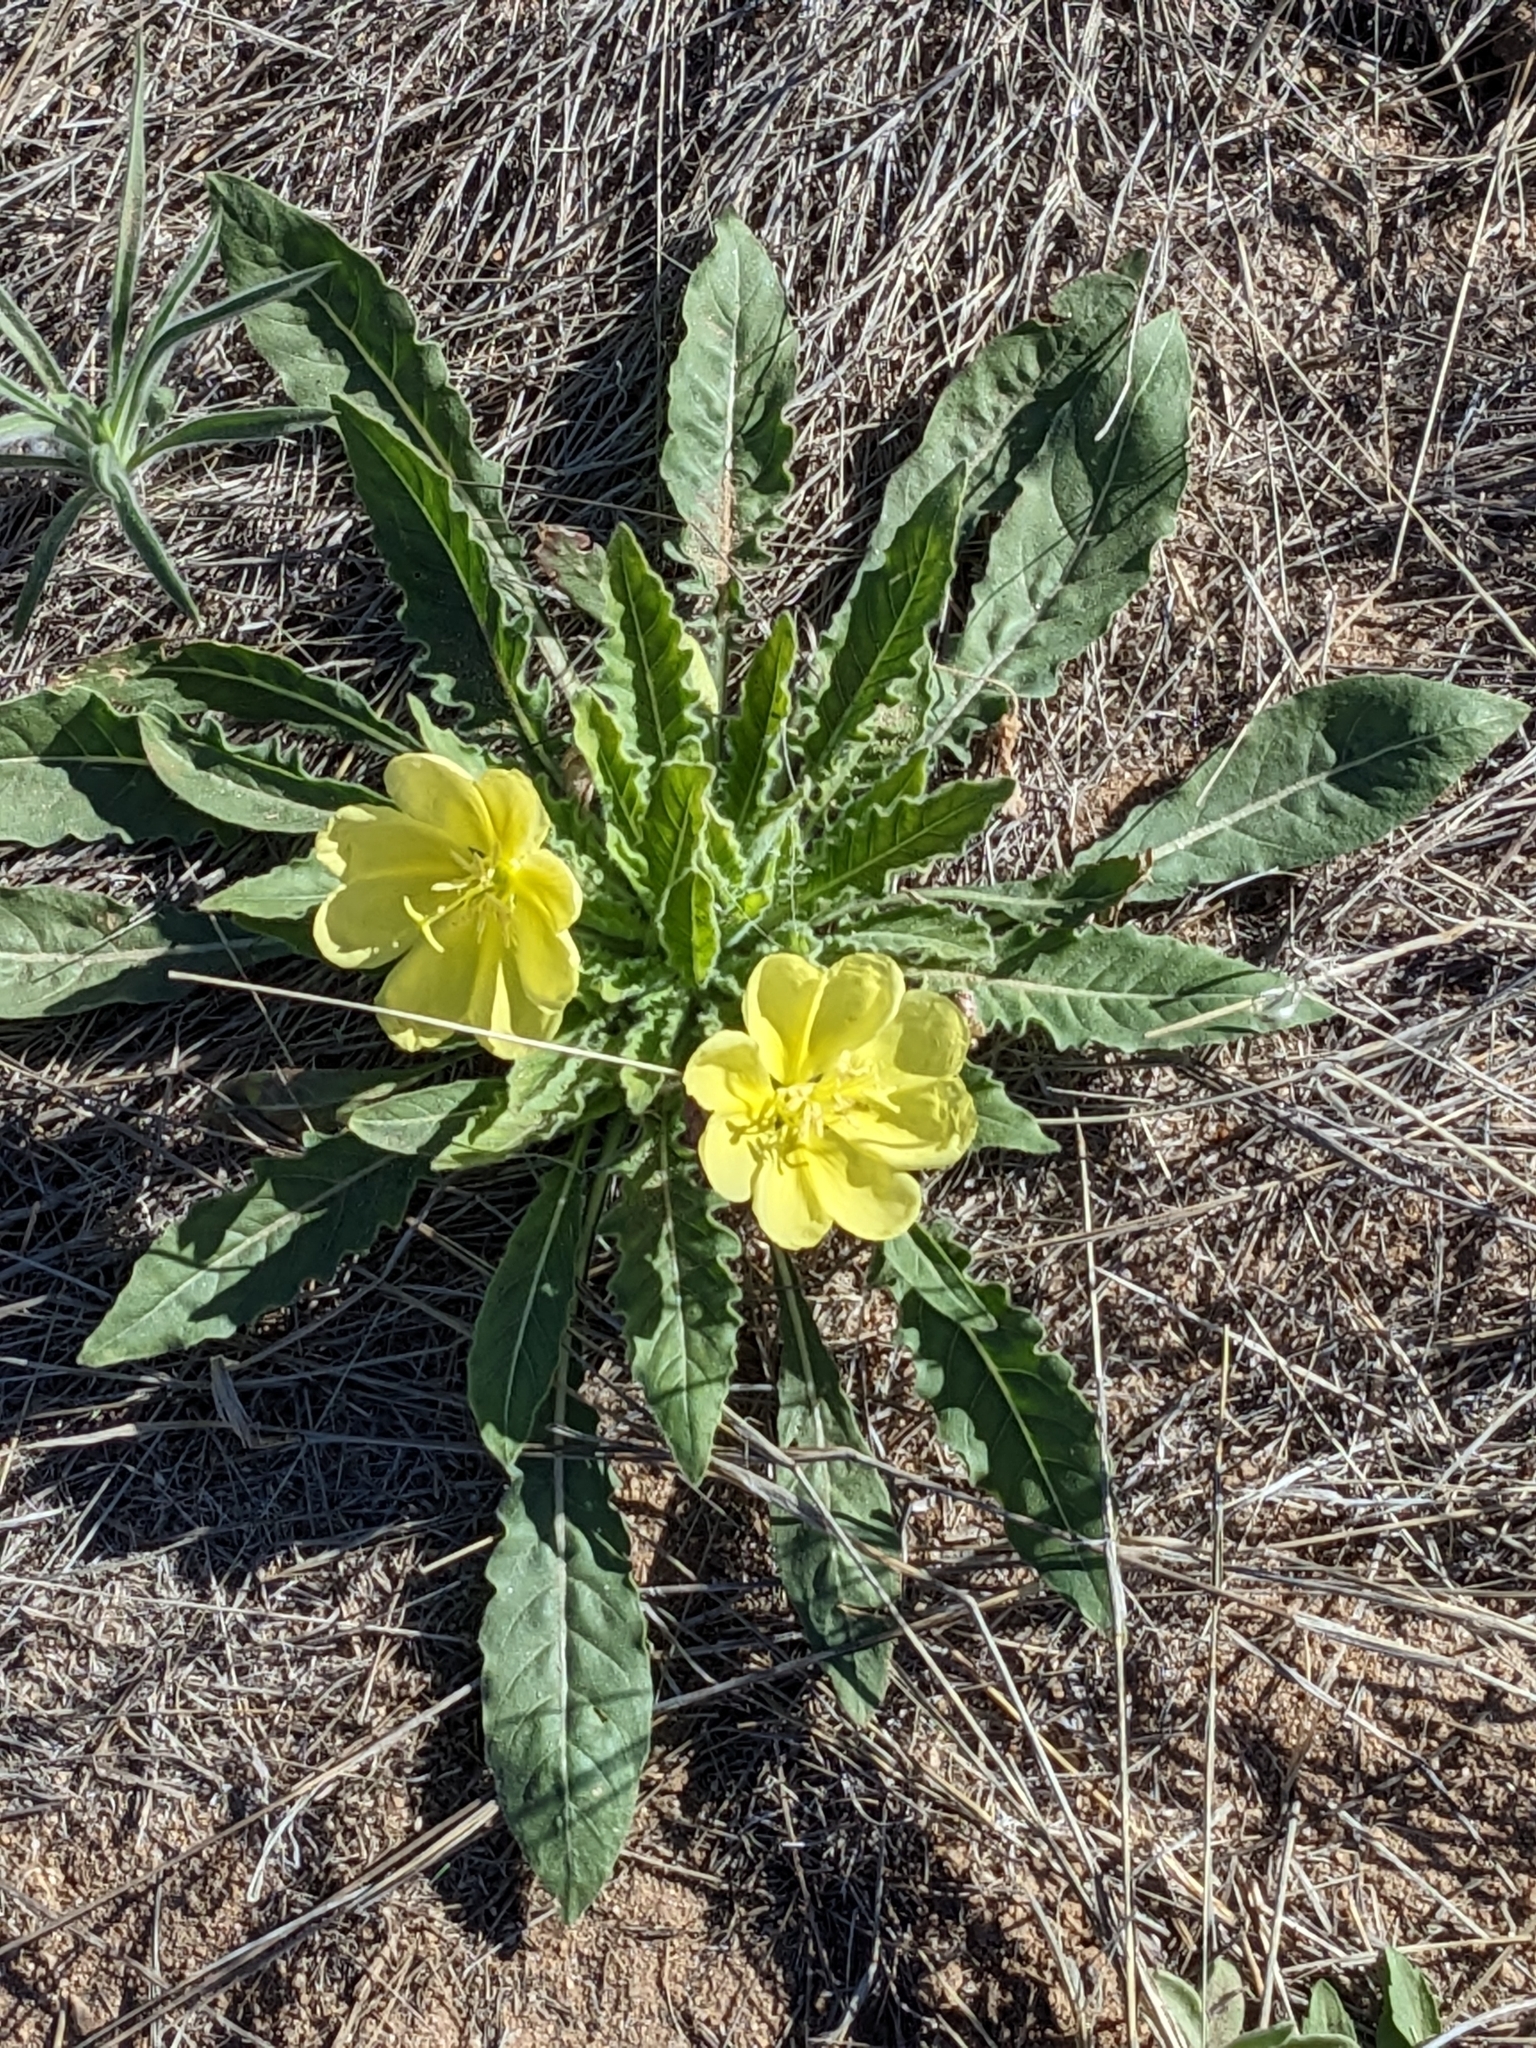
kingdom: Plantae
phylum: Tracheophyta
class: Magnoliopsida
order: Myrtales
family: Onagraceae
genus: Oenothera
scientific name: Oenothera primiveris
